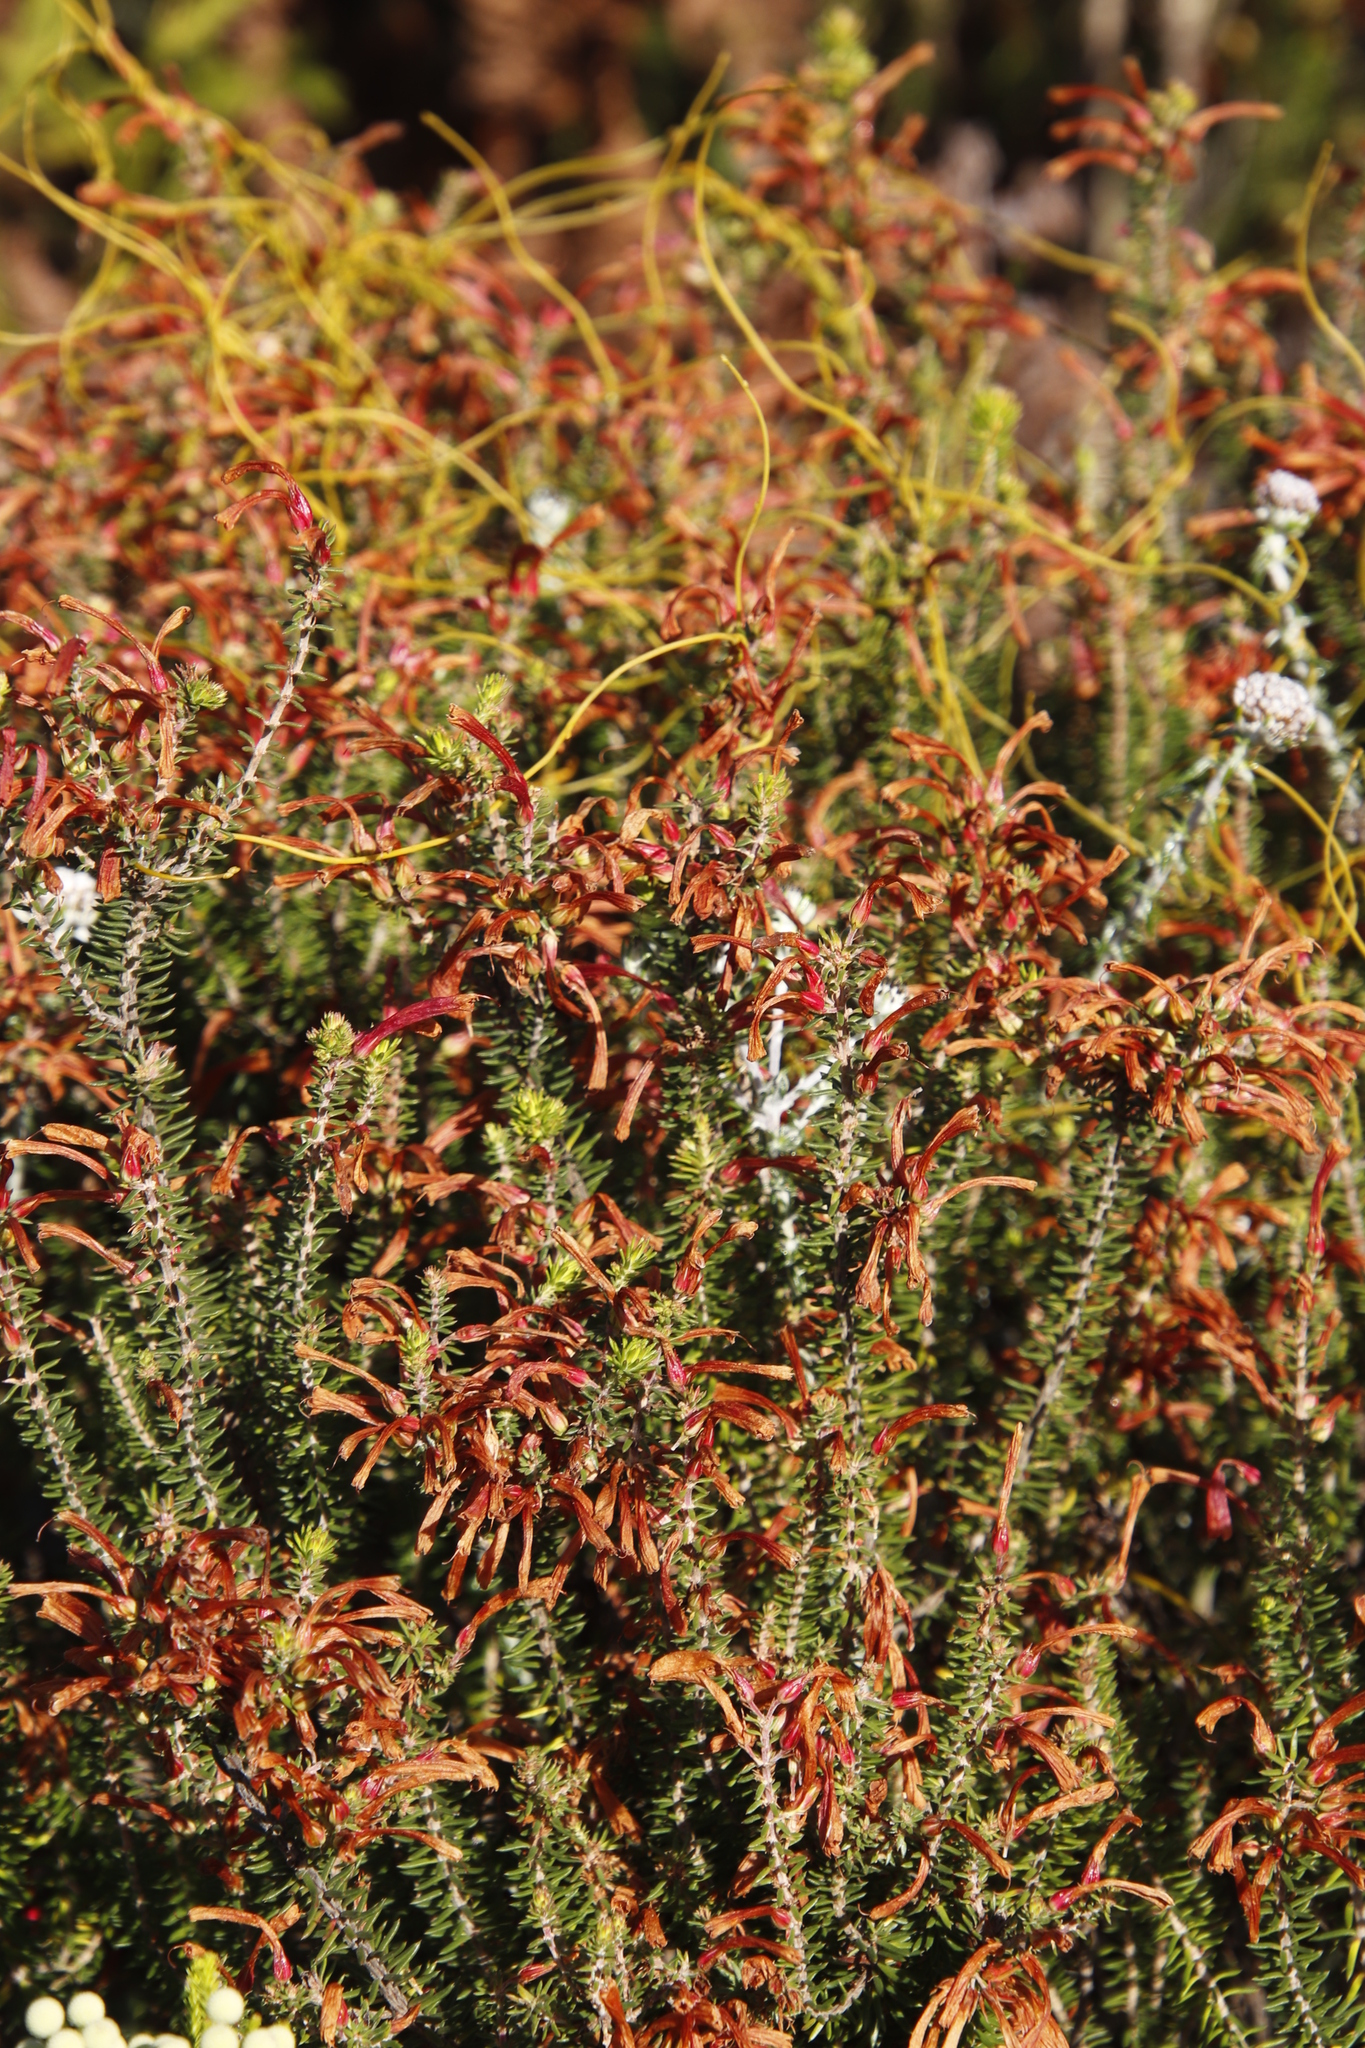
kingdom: Plantae
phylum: Tracheophyta
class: Magnoliopsida
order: Ericales
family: Ericaceae
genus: Erica
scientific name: Erica abietina
